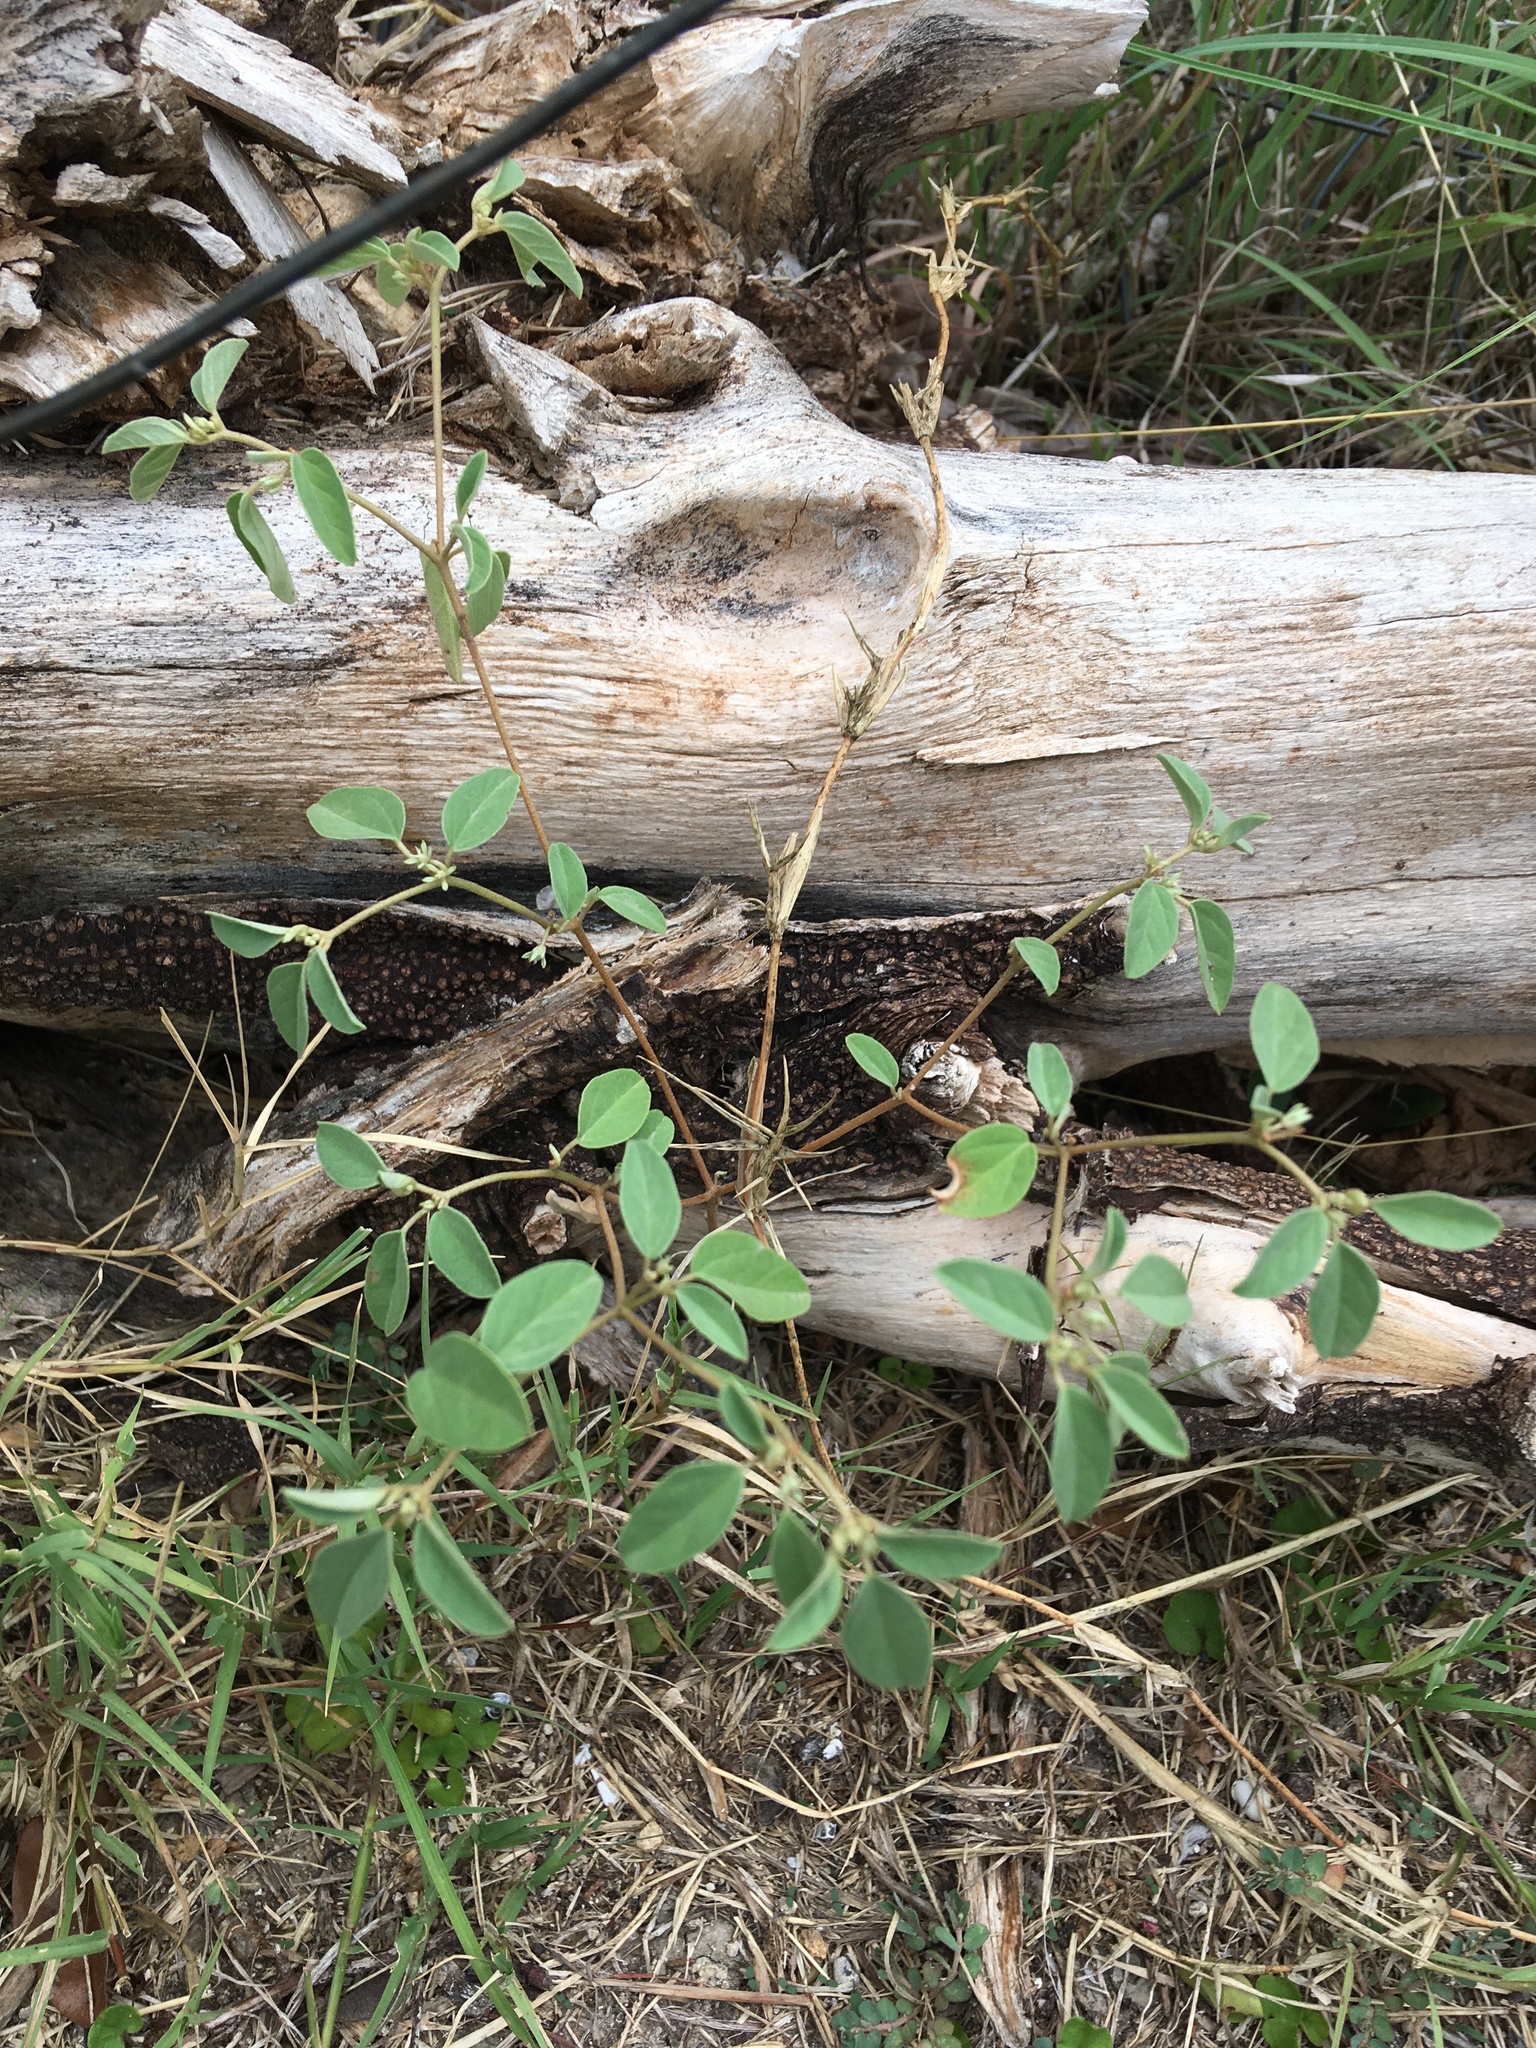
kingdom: Plantae
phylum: Tracheophyta
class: Magnoliopsida
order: Malpighiales
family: Euphorbiaceae
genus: Croton
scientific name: Croton monanthogynus
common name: One-seed croton
